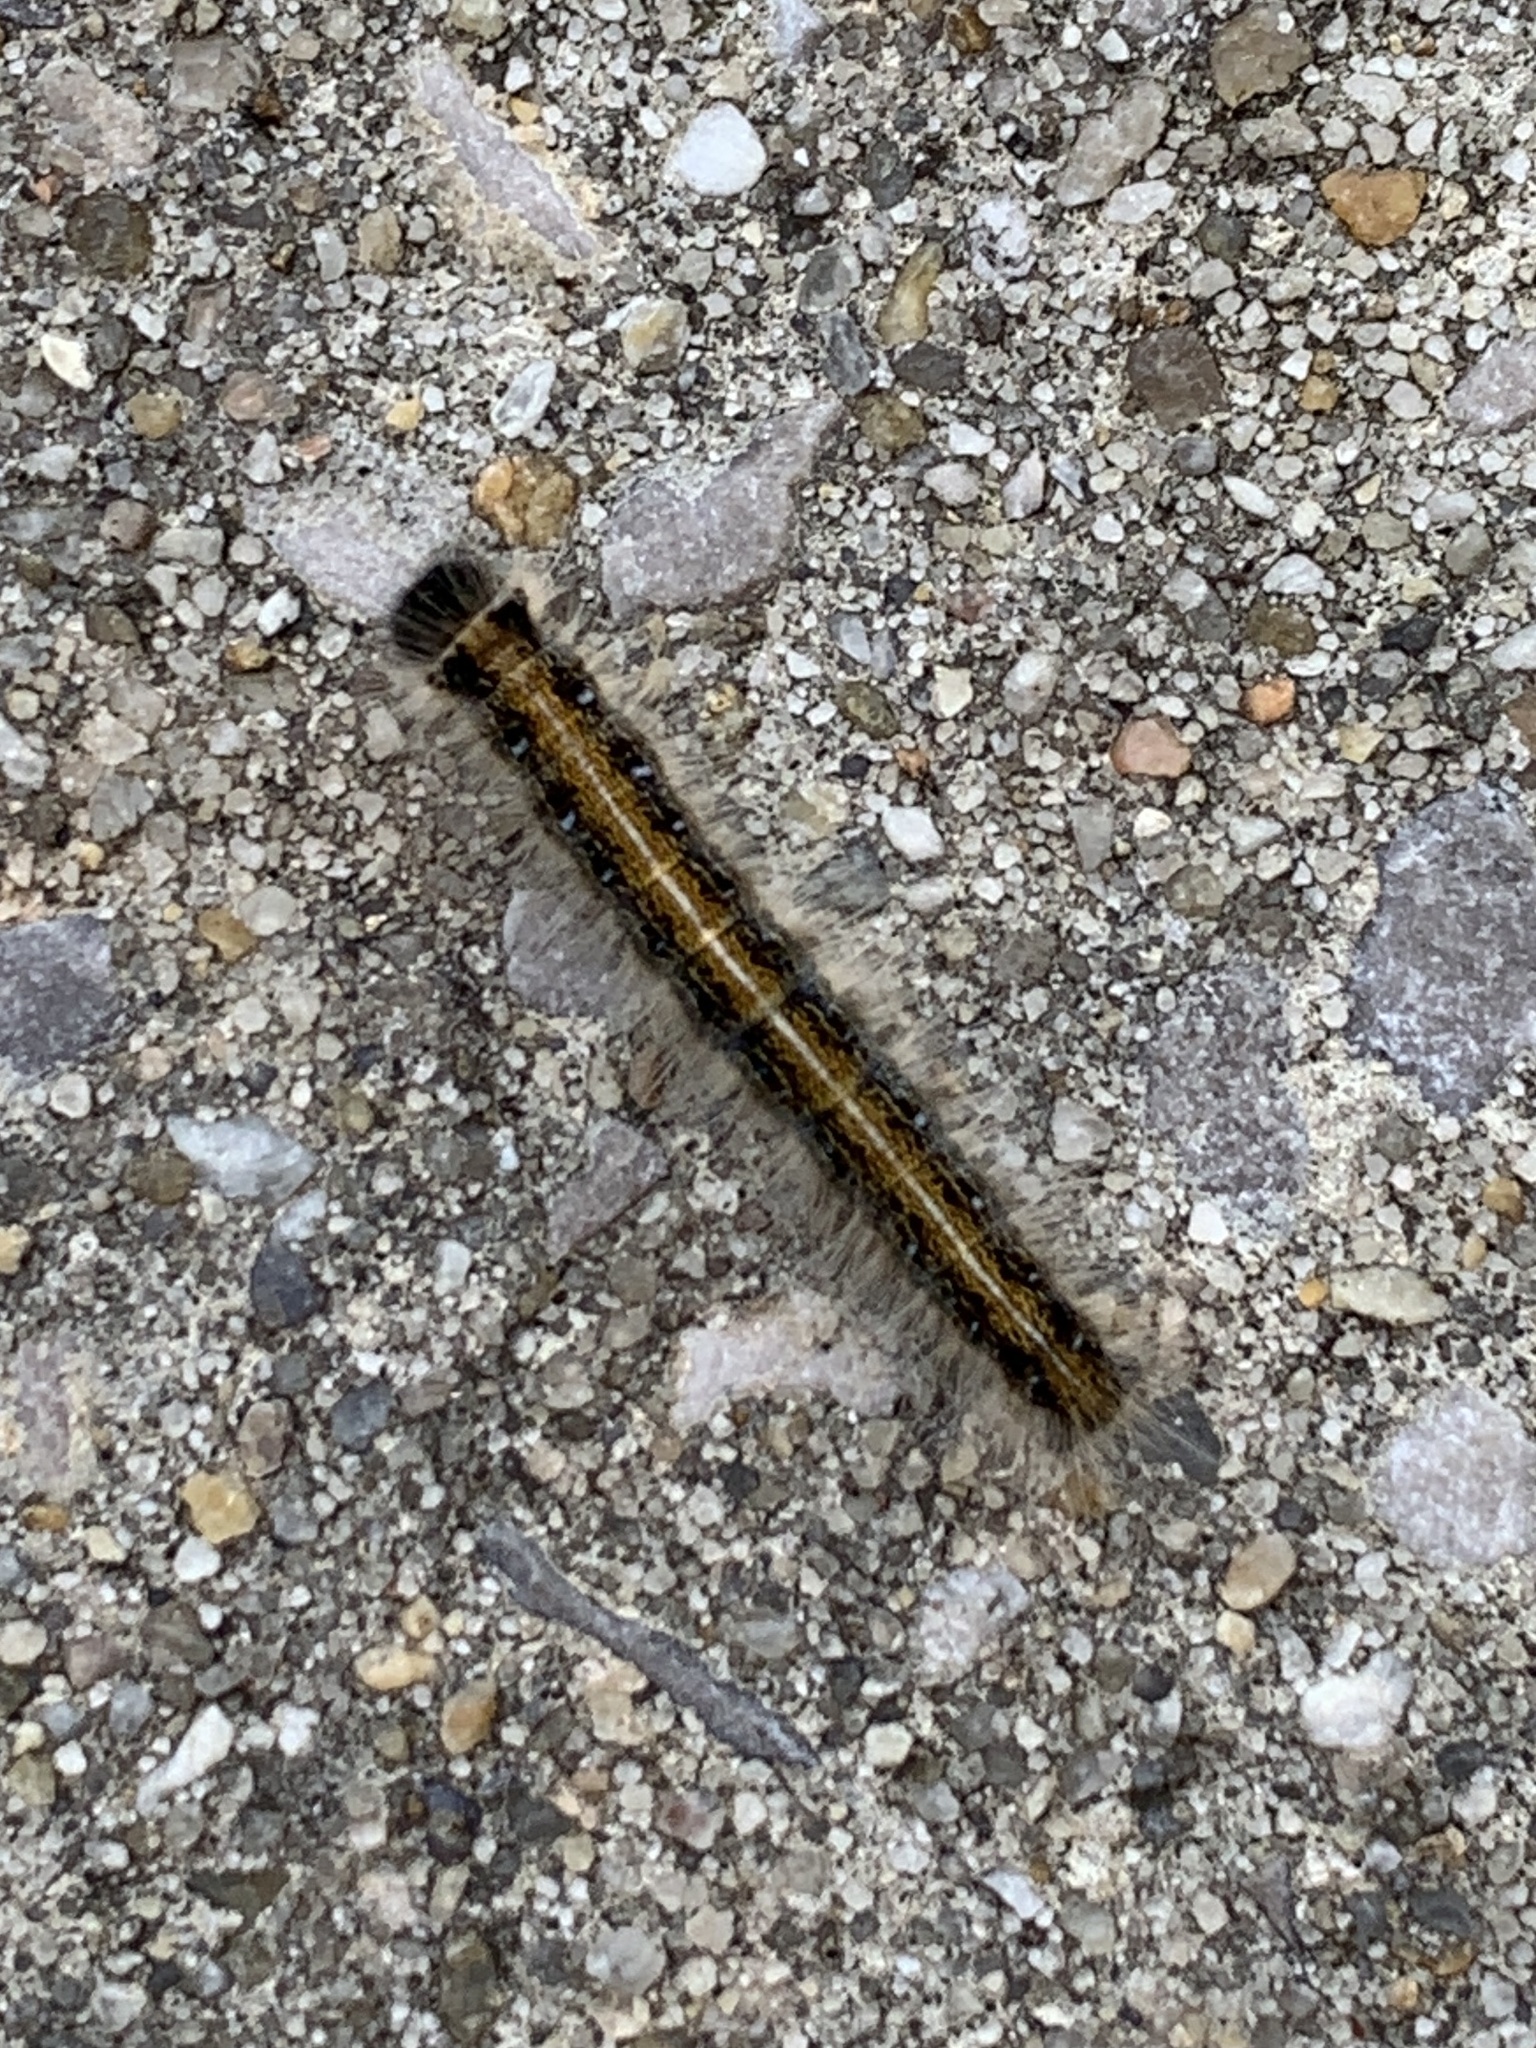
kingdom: Animalia
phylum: Arthropoda
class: Insecta
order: Lepidoptera
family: Lasiocampidae
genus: Malacosoma
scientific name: Malacosoma americana
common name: Eastern tent caterpillar moth
